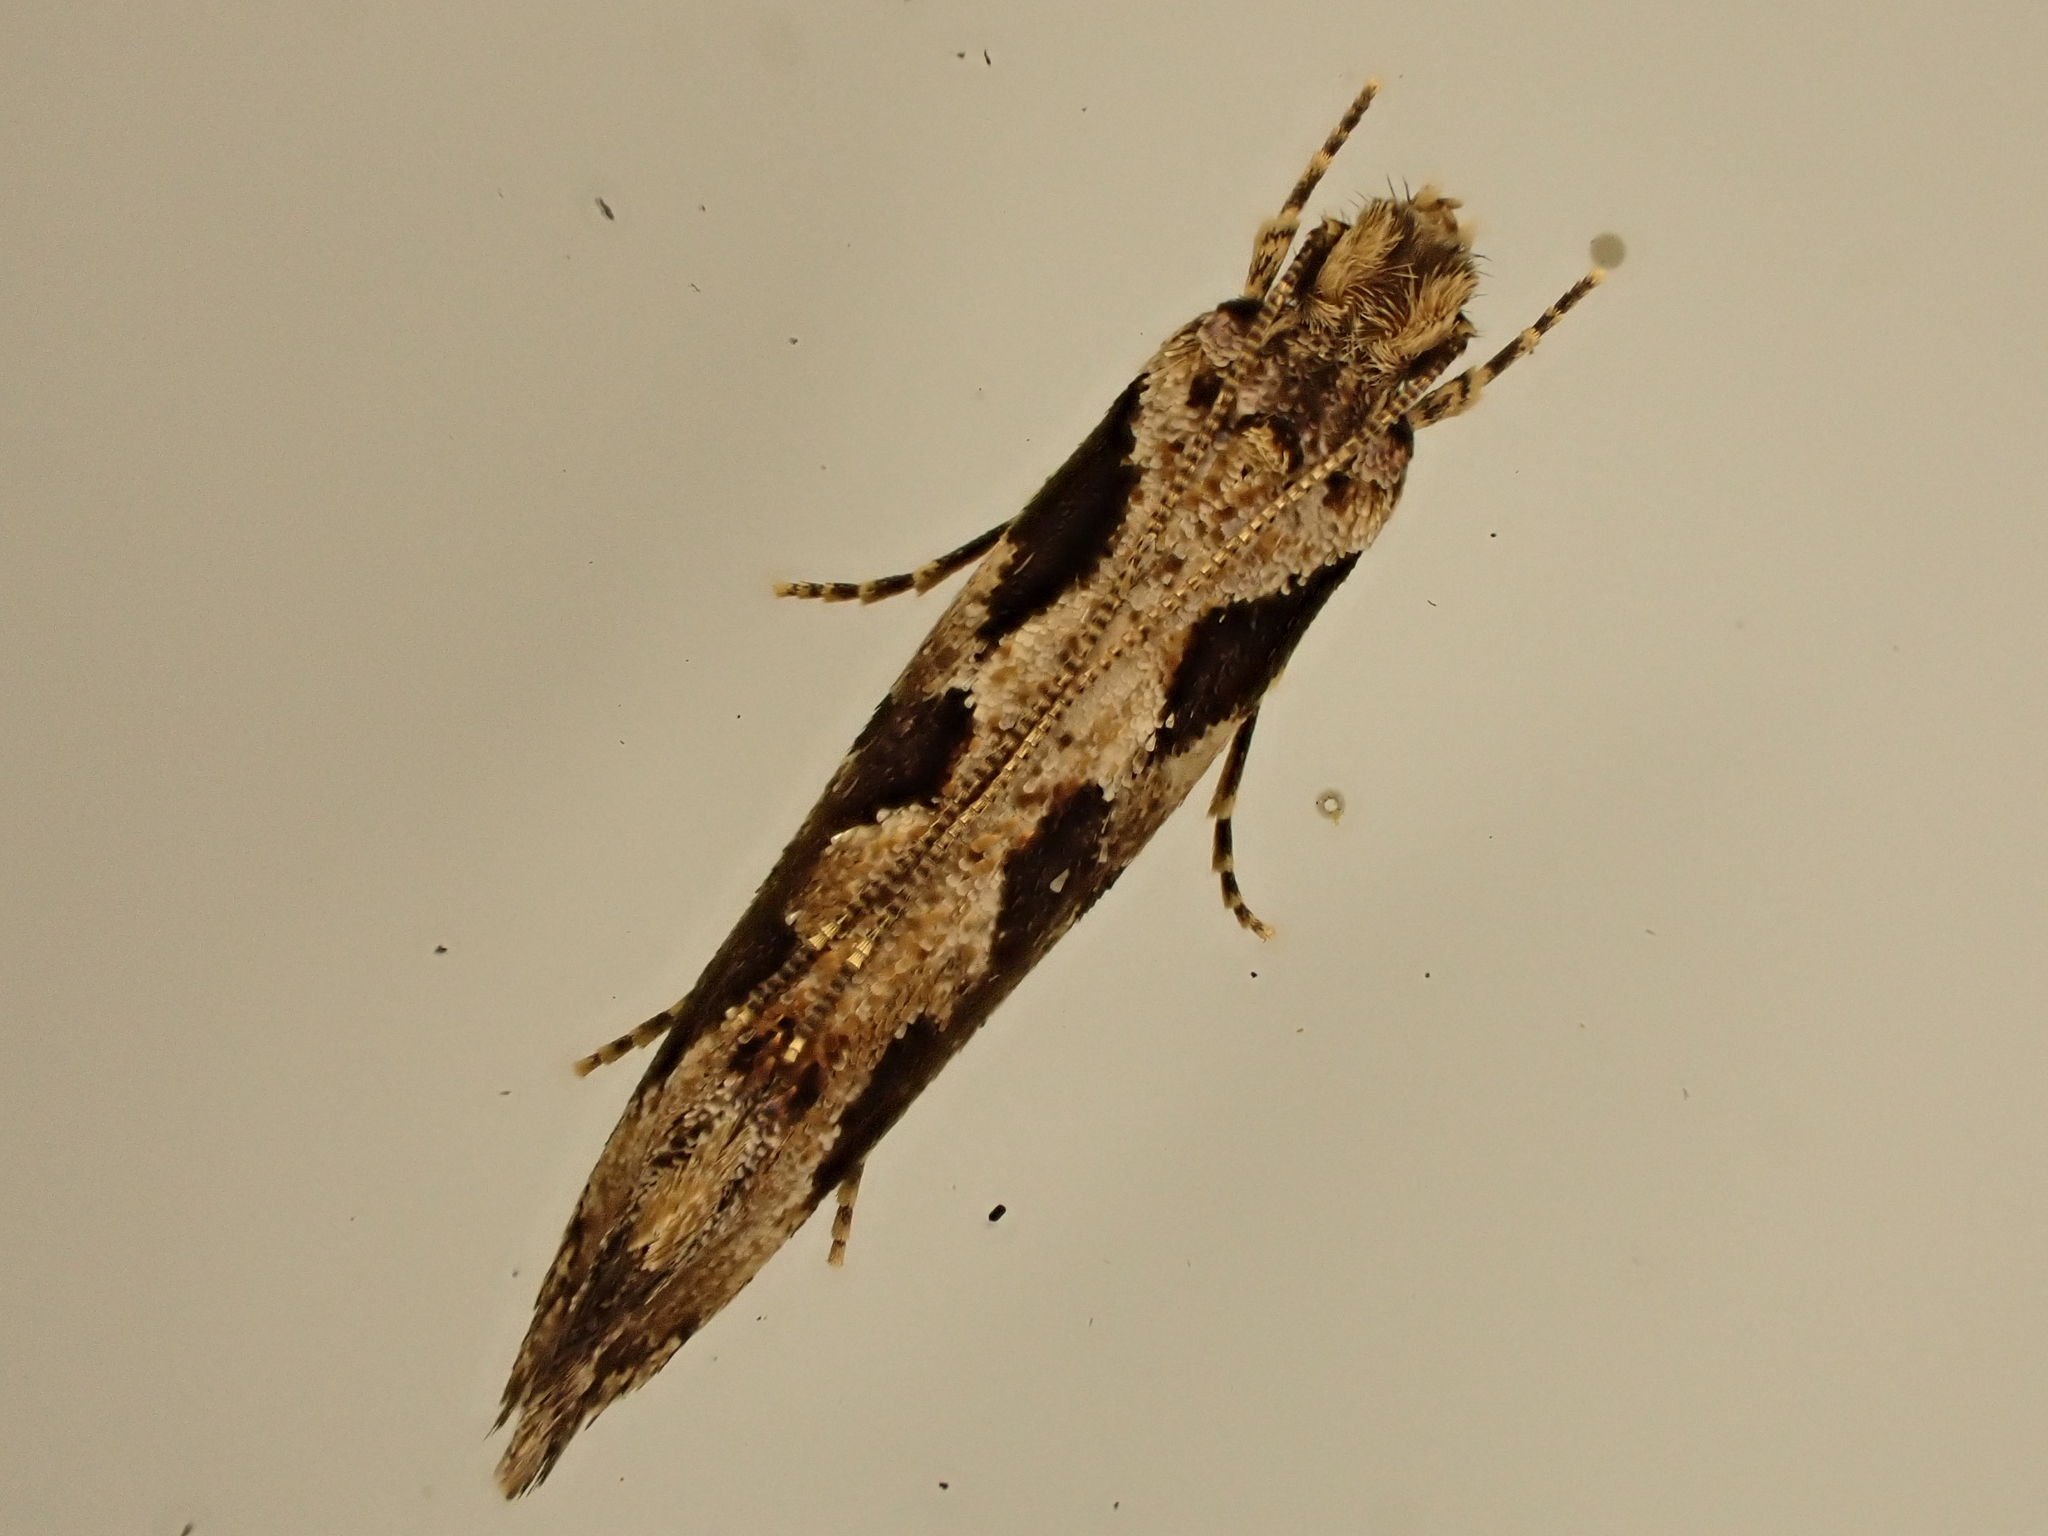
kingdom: Animalia
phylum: Arthropoda
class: Insecta
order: Lepidoptera
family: Tineidae
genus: Erechthias
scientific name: Erechthias capnitis
